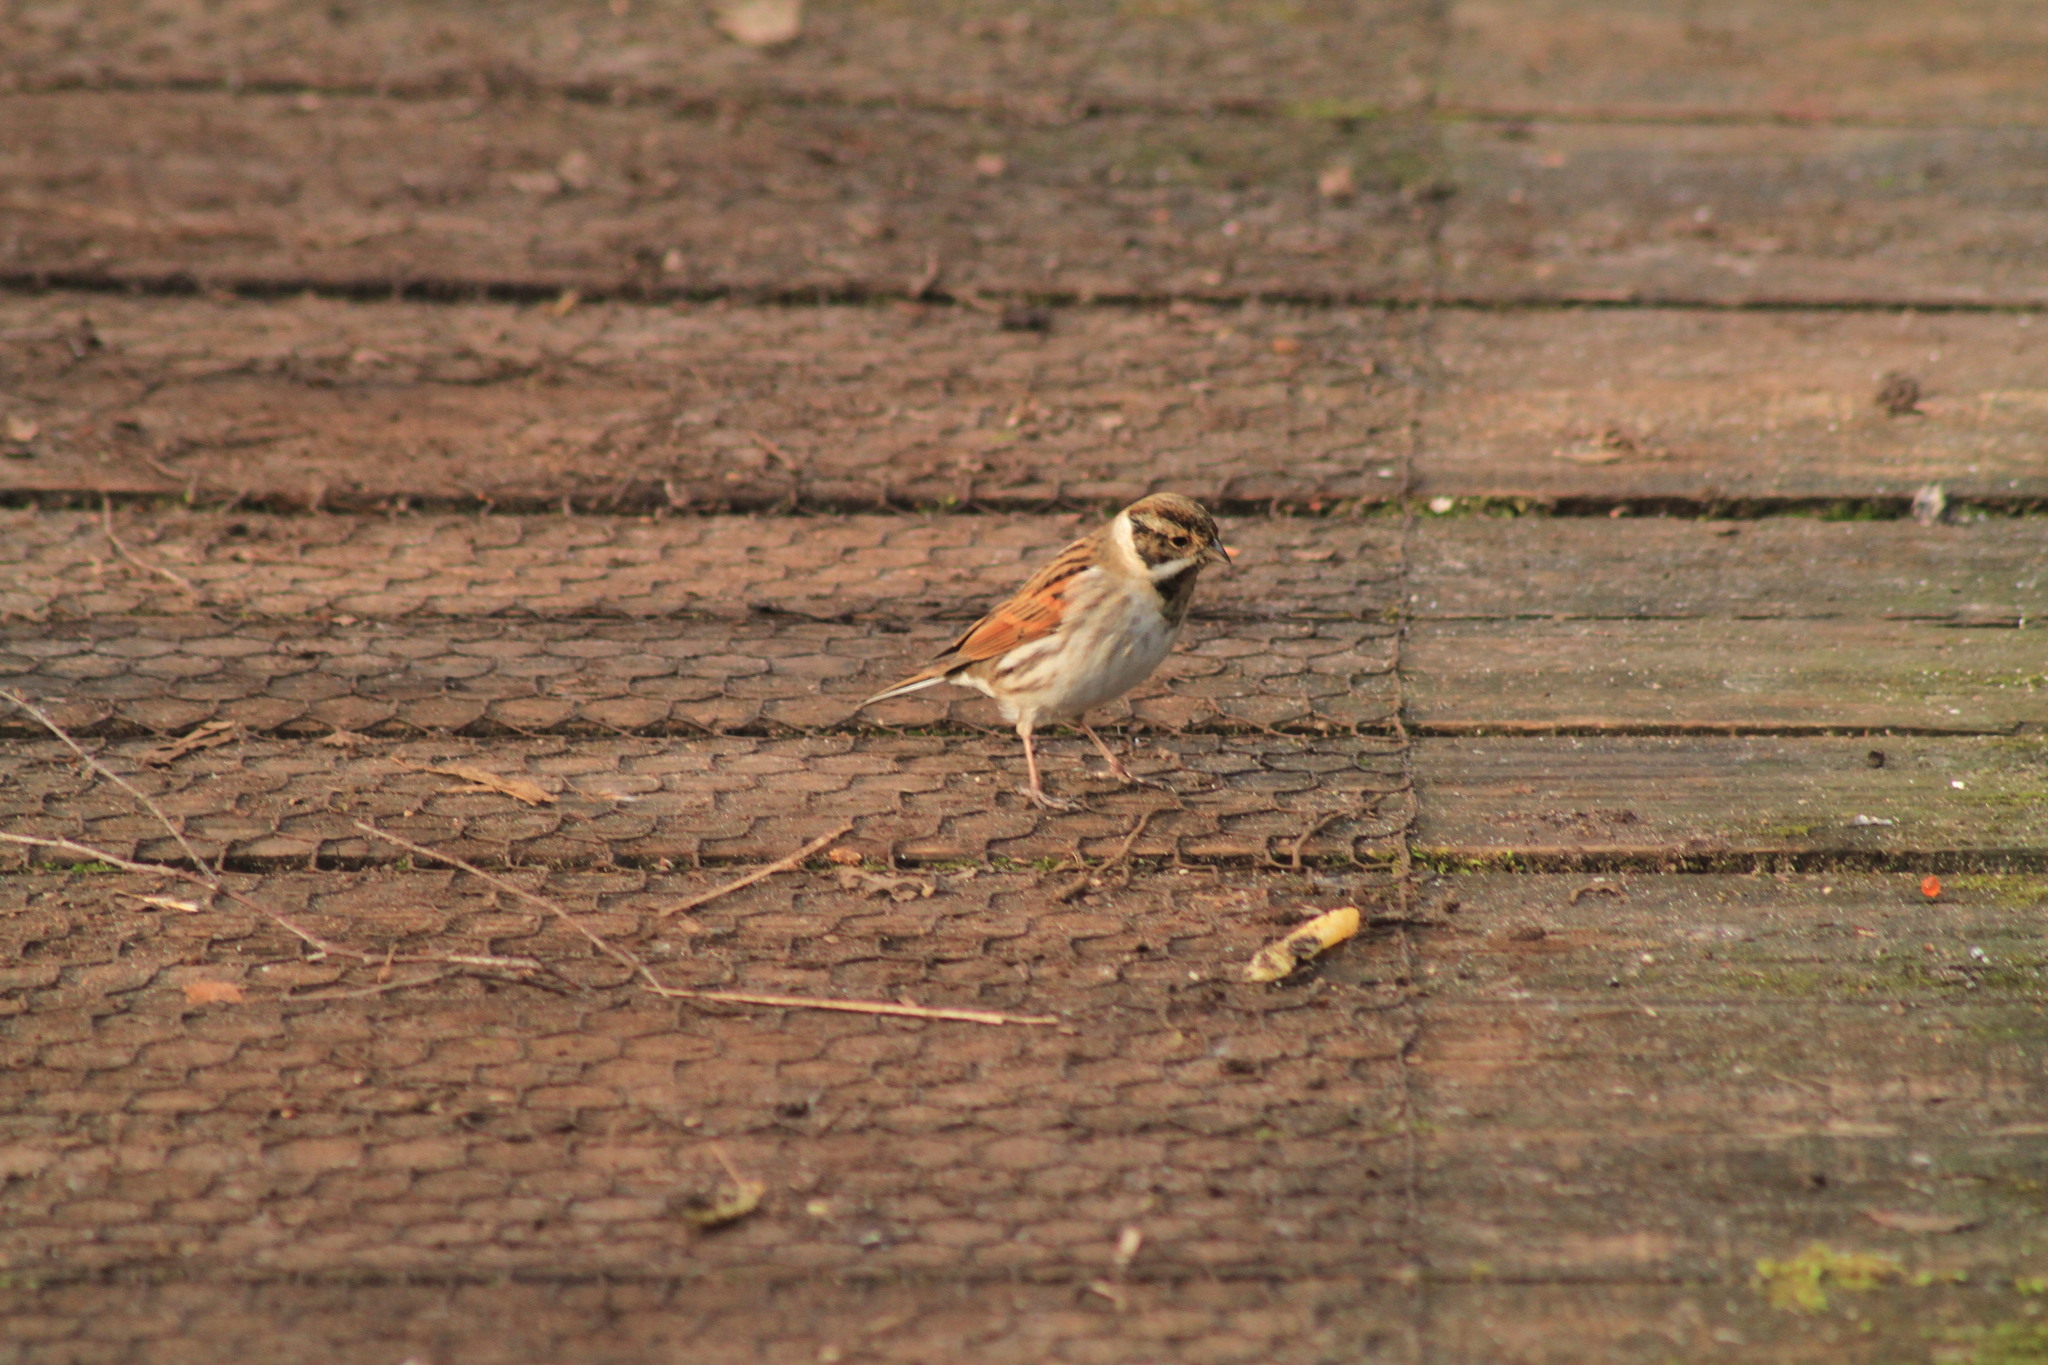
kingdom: Animalia
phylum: Chordata
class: Aves
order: Passeriformes
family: Emberizidae
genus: Emberiza
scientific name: Emberiza schoeniclus
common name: Reed bunting
